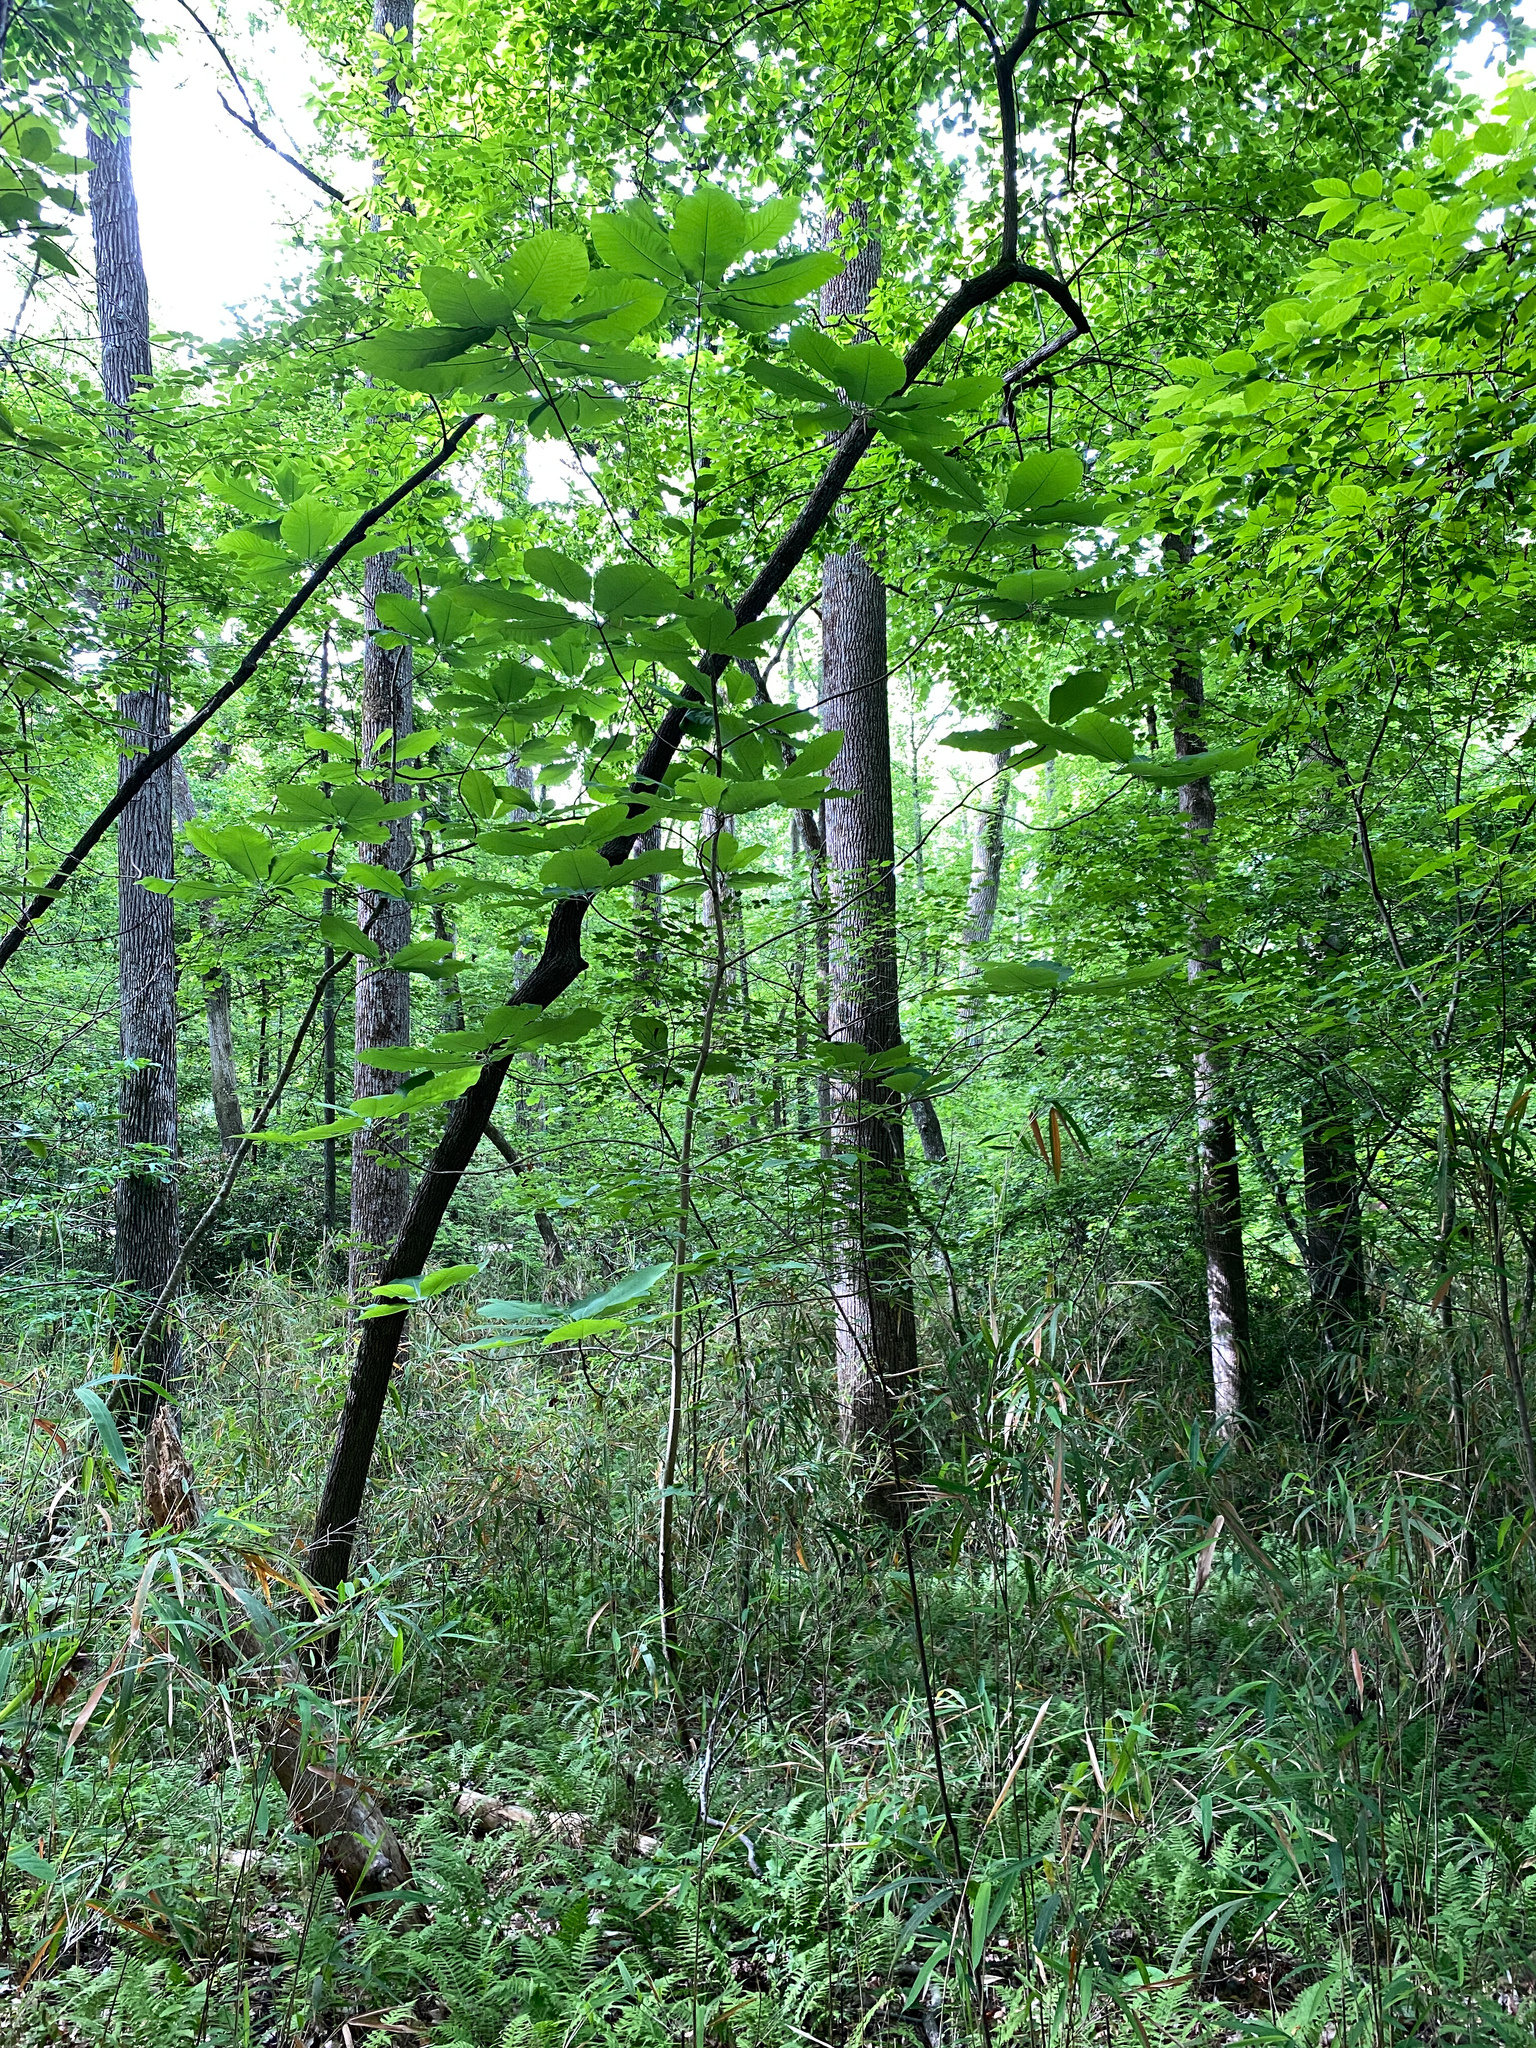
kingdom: Plantae
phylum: Tracheophyta
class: Magnoliopsida
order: Magnoliales
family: Magnoliaceae
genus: Magnolia
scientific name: Magnolia macrophylla
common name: Big-leaf magnolia
